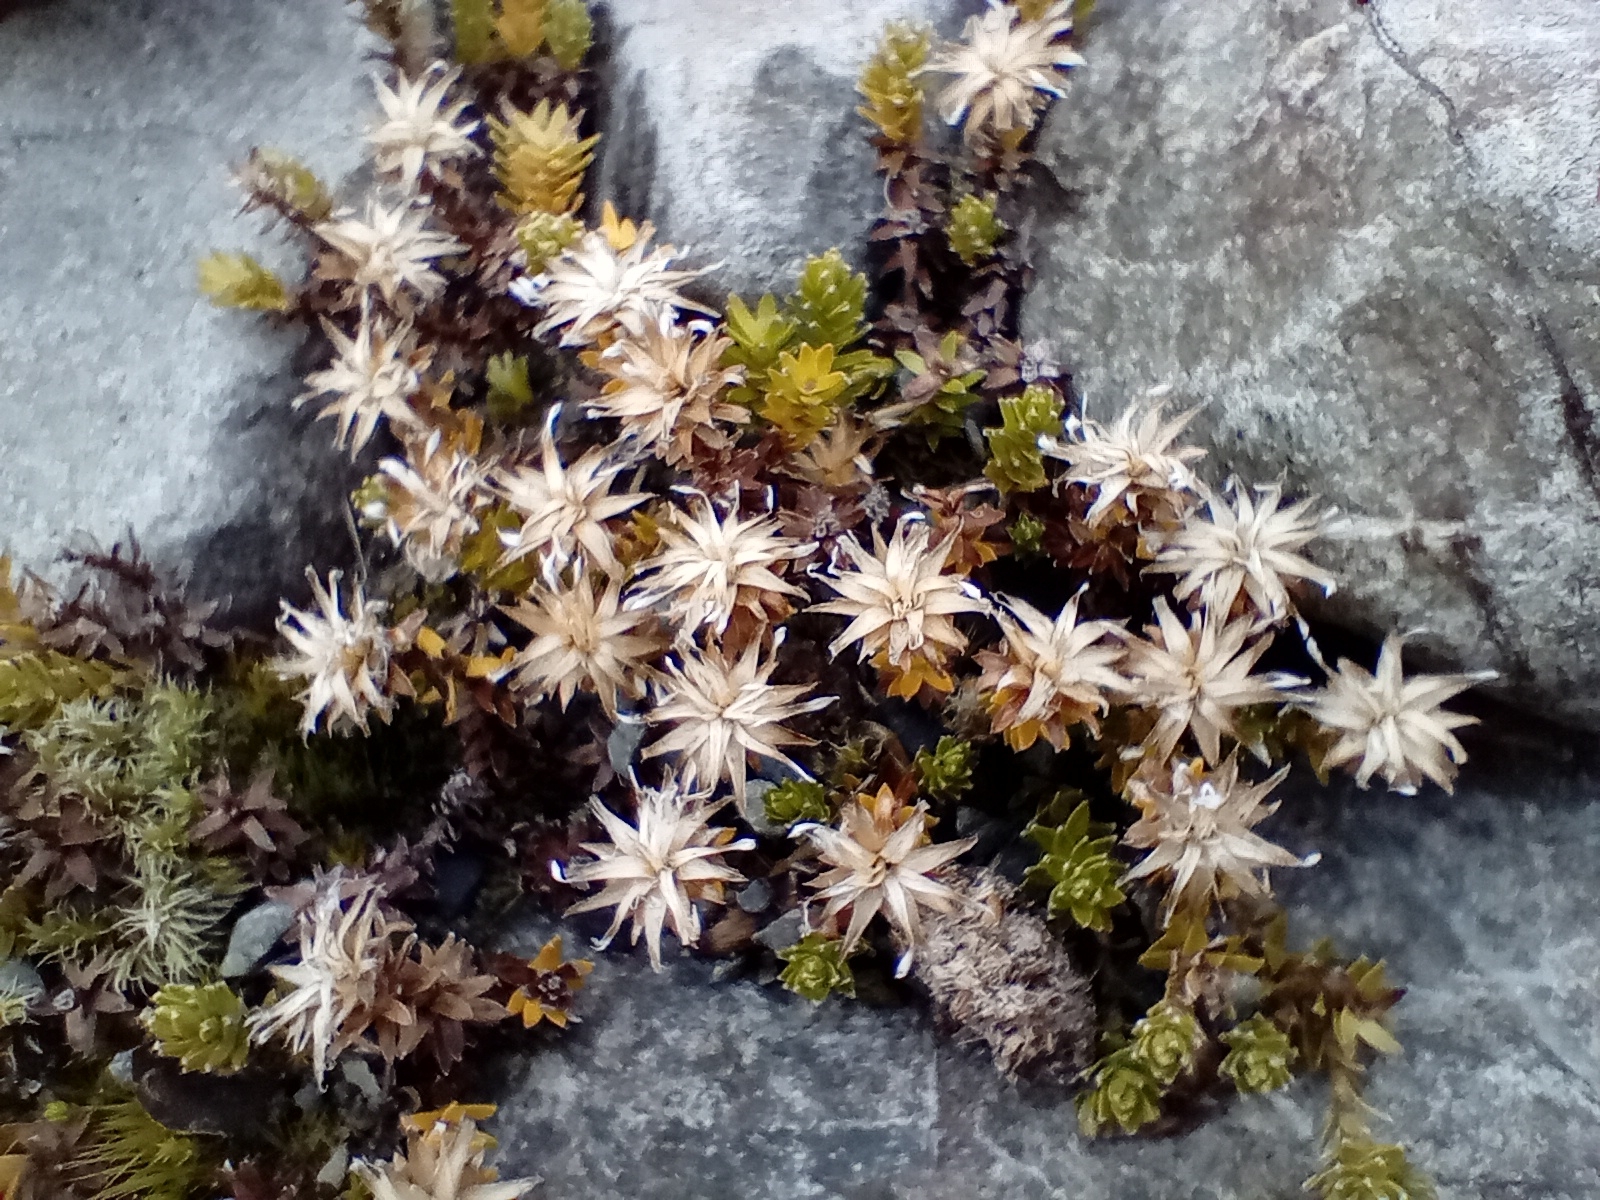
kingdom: Plantae
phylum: Tracheophyta
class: Magnoliopsida
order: Asterales
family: Asteraceae
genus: Raoulia
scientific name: Raoulia glabra
